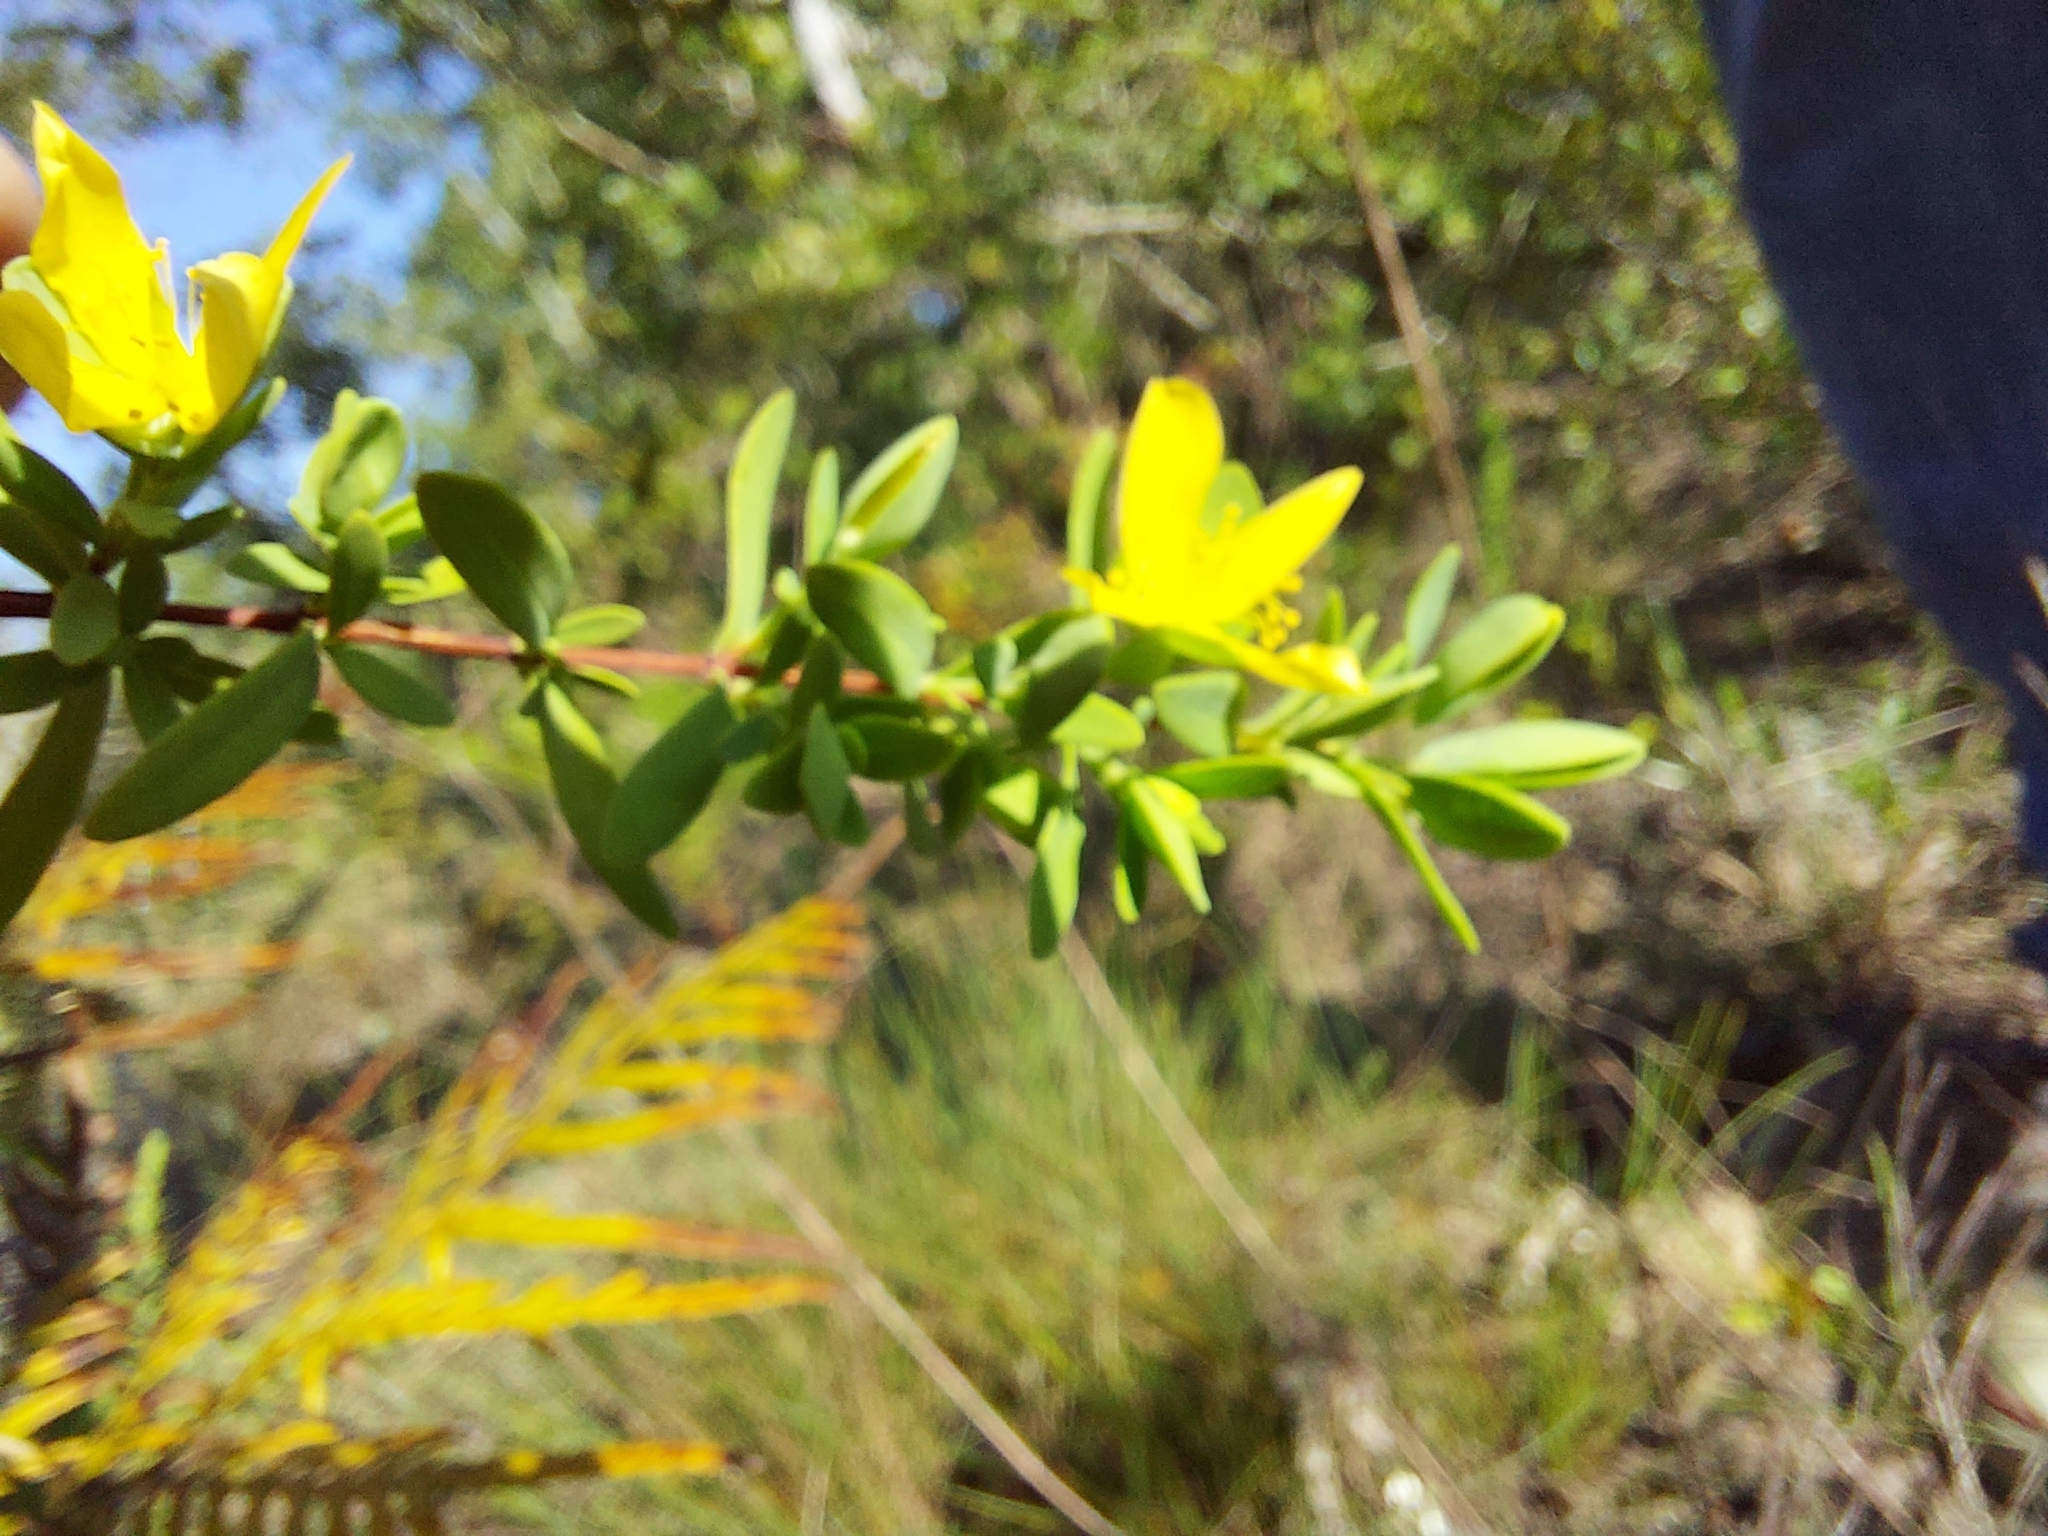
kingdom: Plantae
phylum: Tracheophyta
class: Magnoliopsida
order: Malpighiales
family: Hypericaceae
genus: Hypericum
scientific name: Hypericum hypericoides
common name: St. andrew's cross
